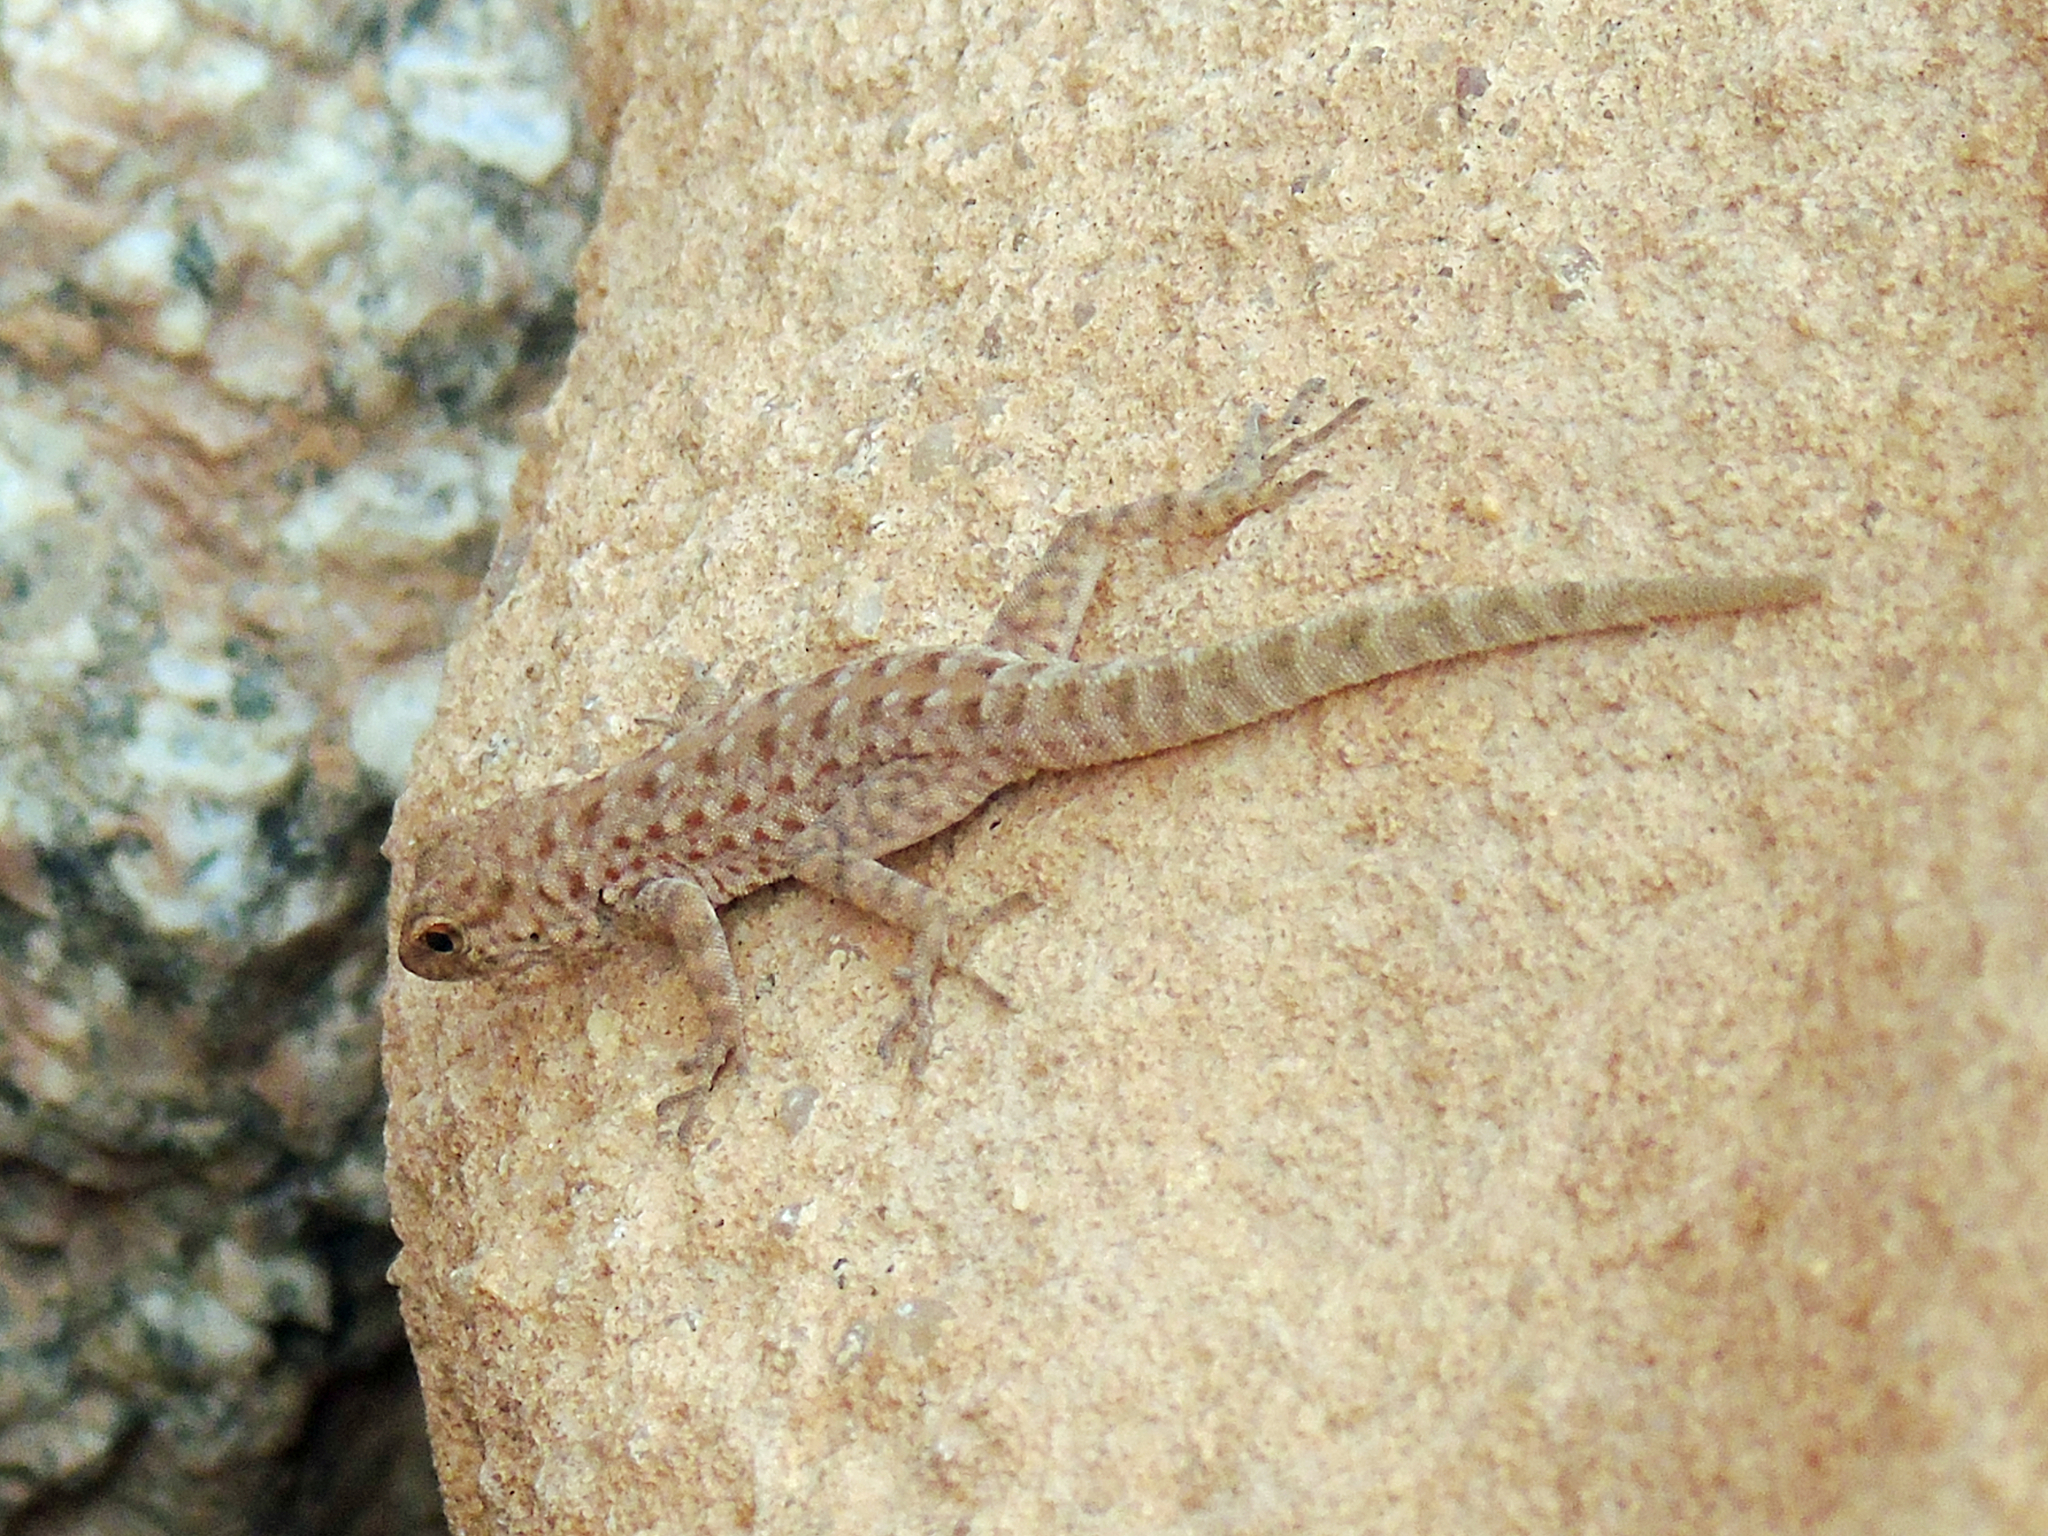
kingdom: Animalia
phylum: Chordata
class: Squamata
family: Sphaerodactylidae
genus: Pristurus
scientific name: Pristurus rupestris
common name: Blanford’s semaphore gecko
